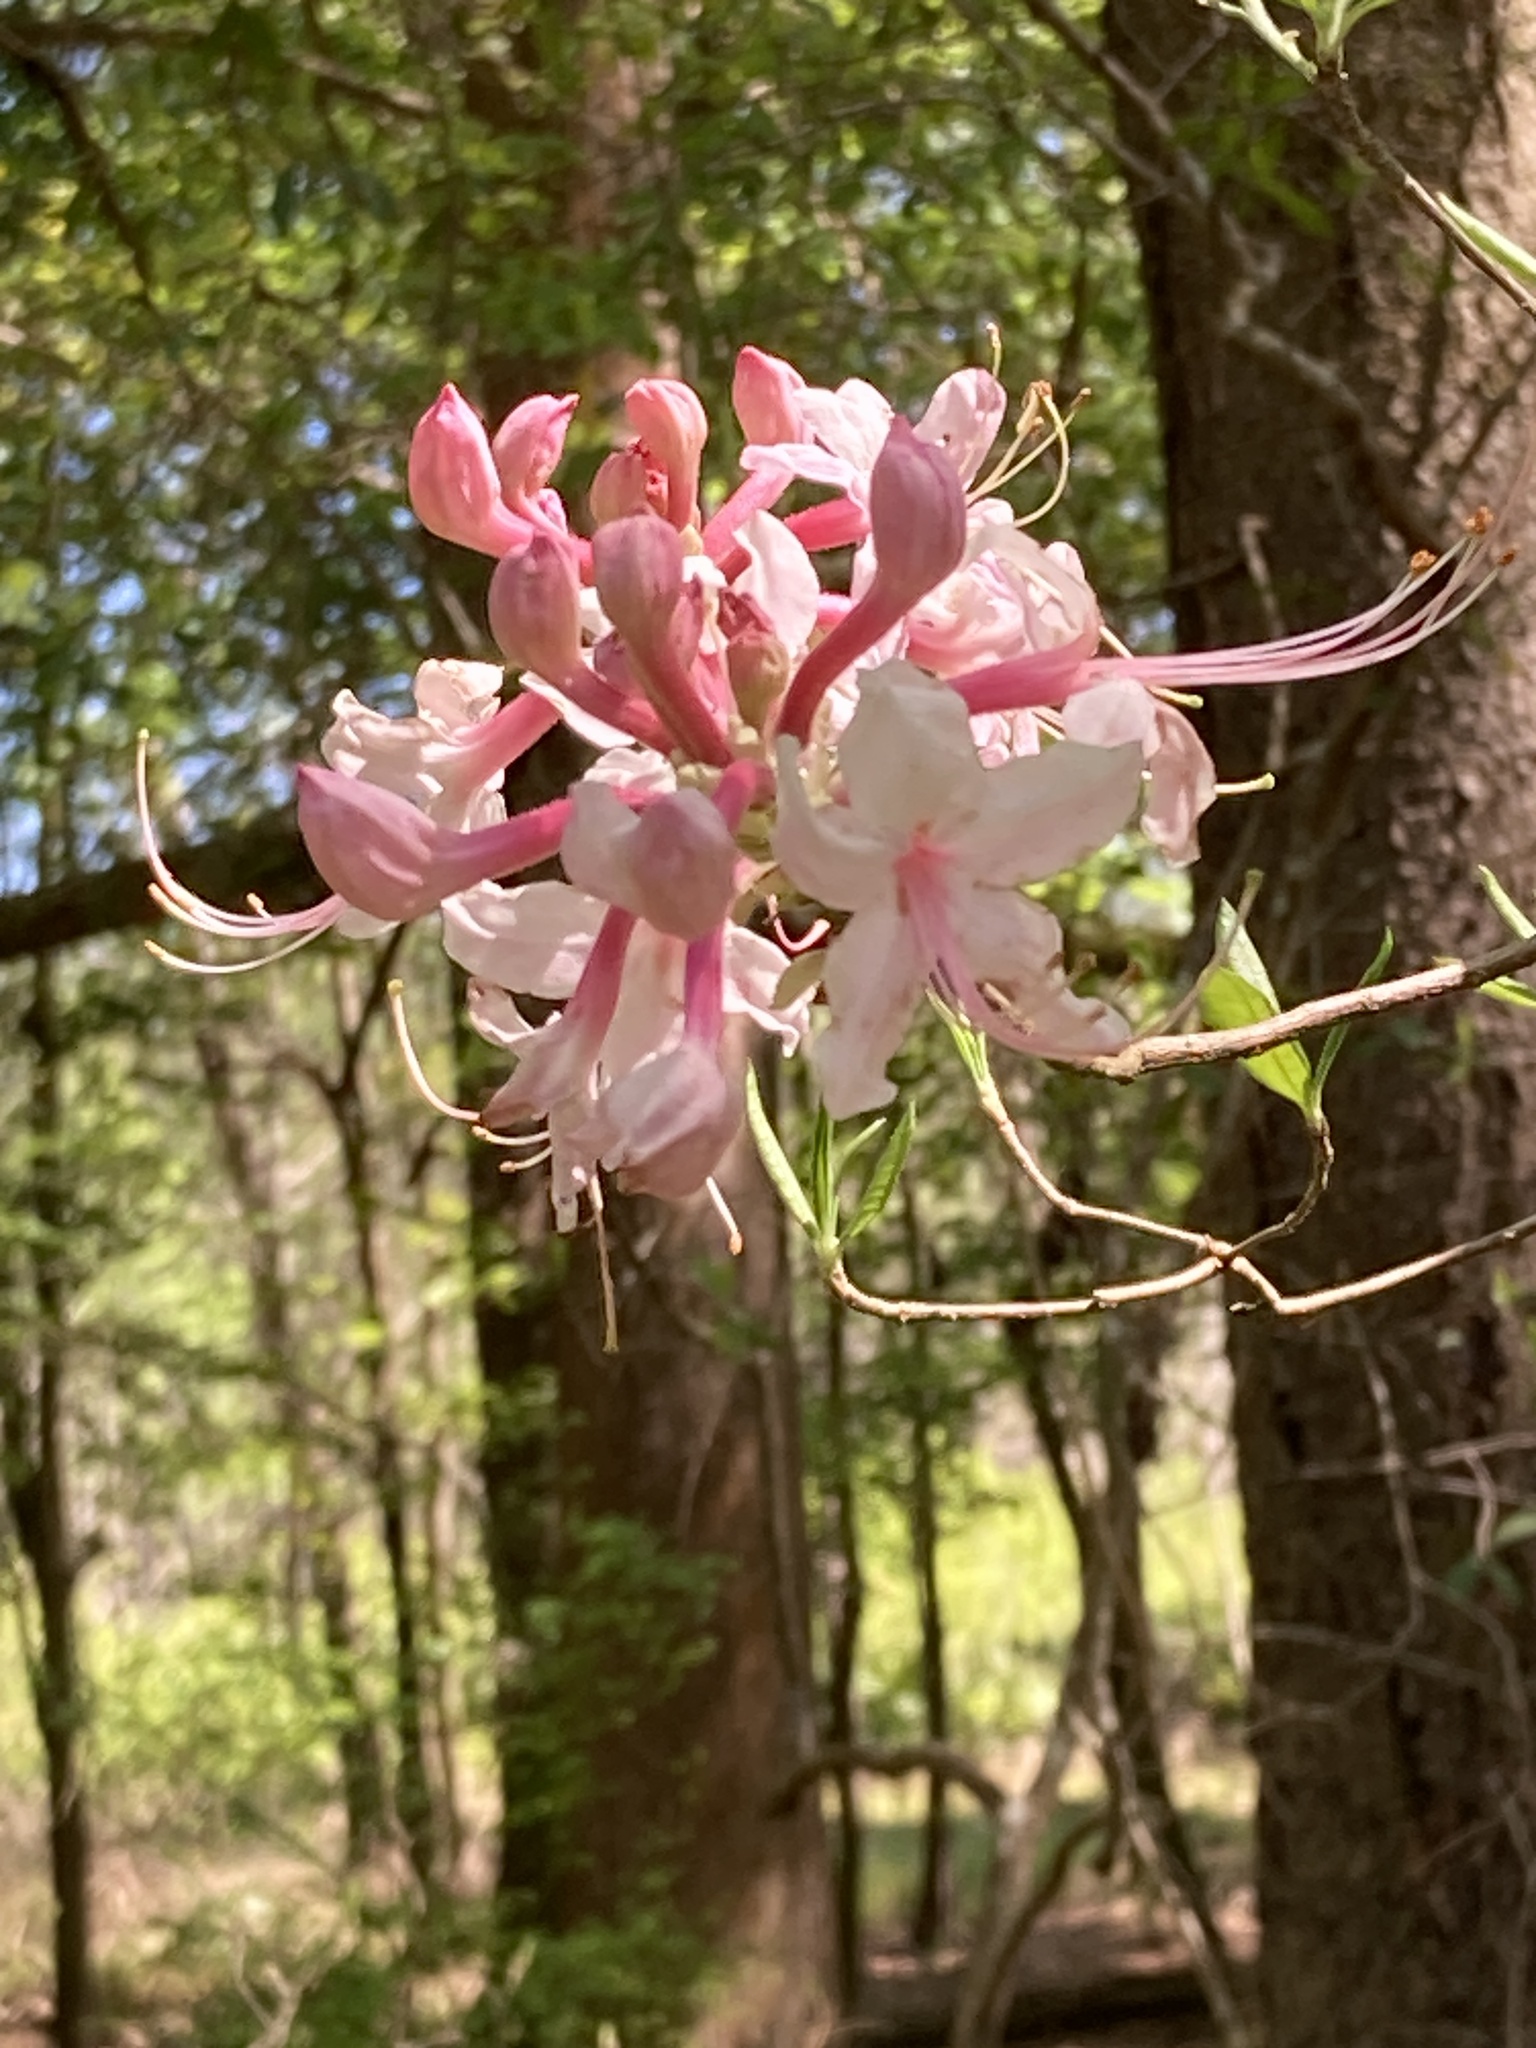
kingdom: Plantae
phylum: Tracheophyta
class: Magnoliopsida
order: Ericales
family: Ericaceae
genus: Rhododendron
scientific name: Rhododendron canescens
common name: Mountain azalea
